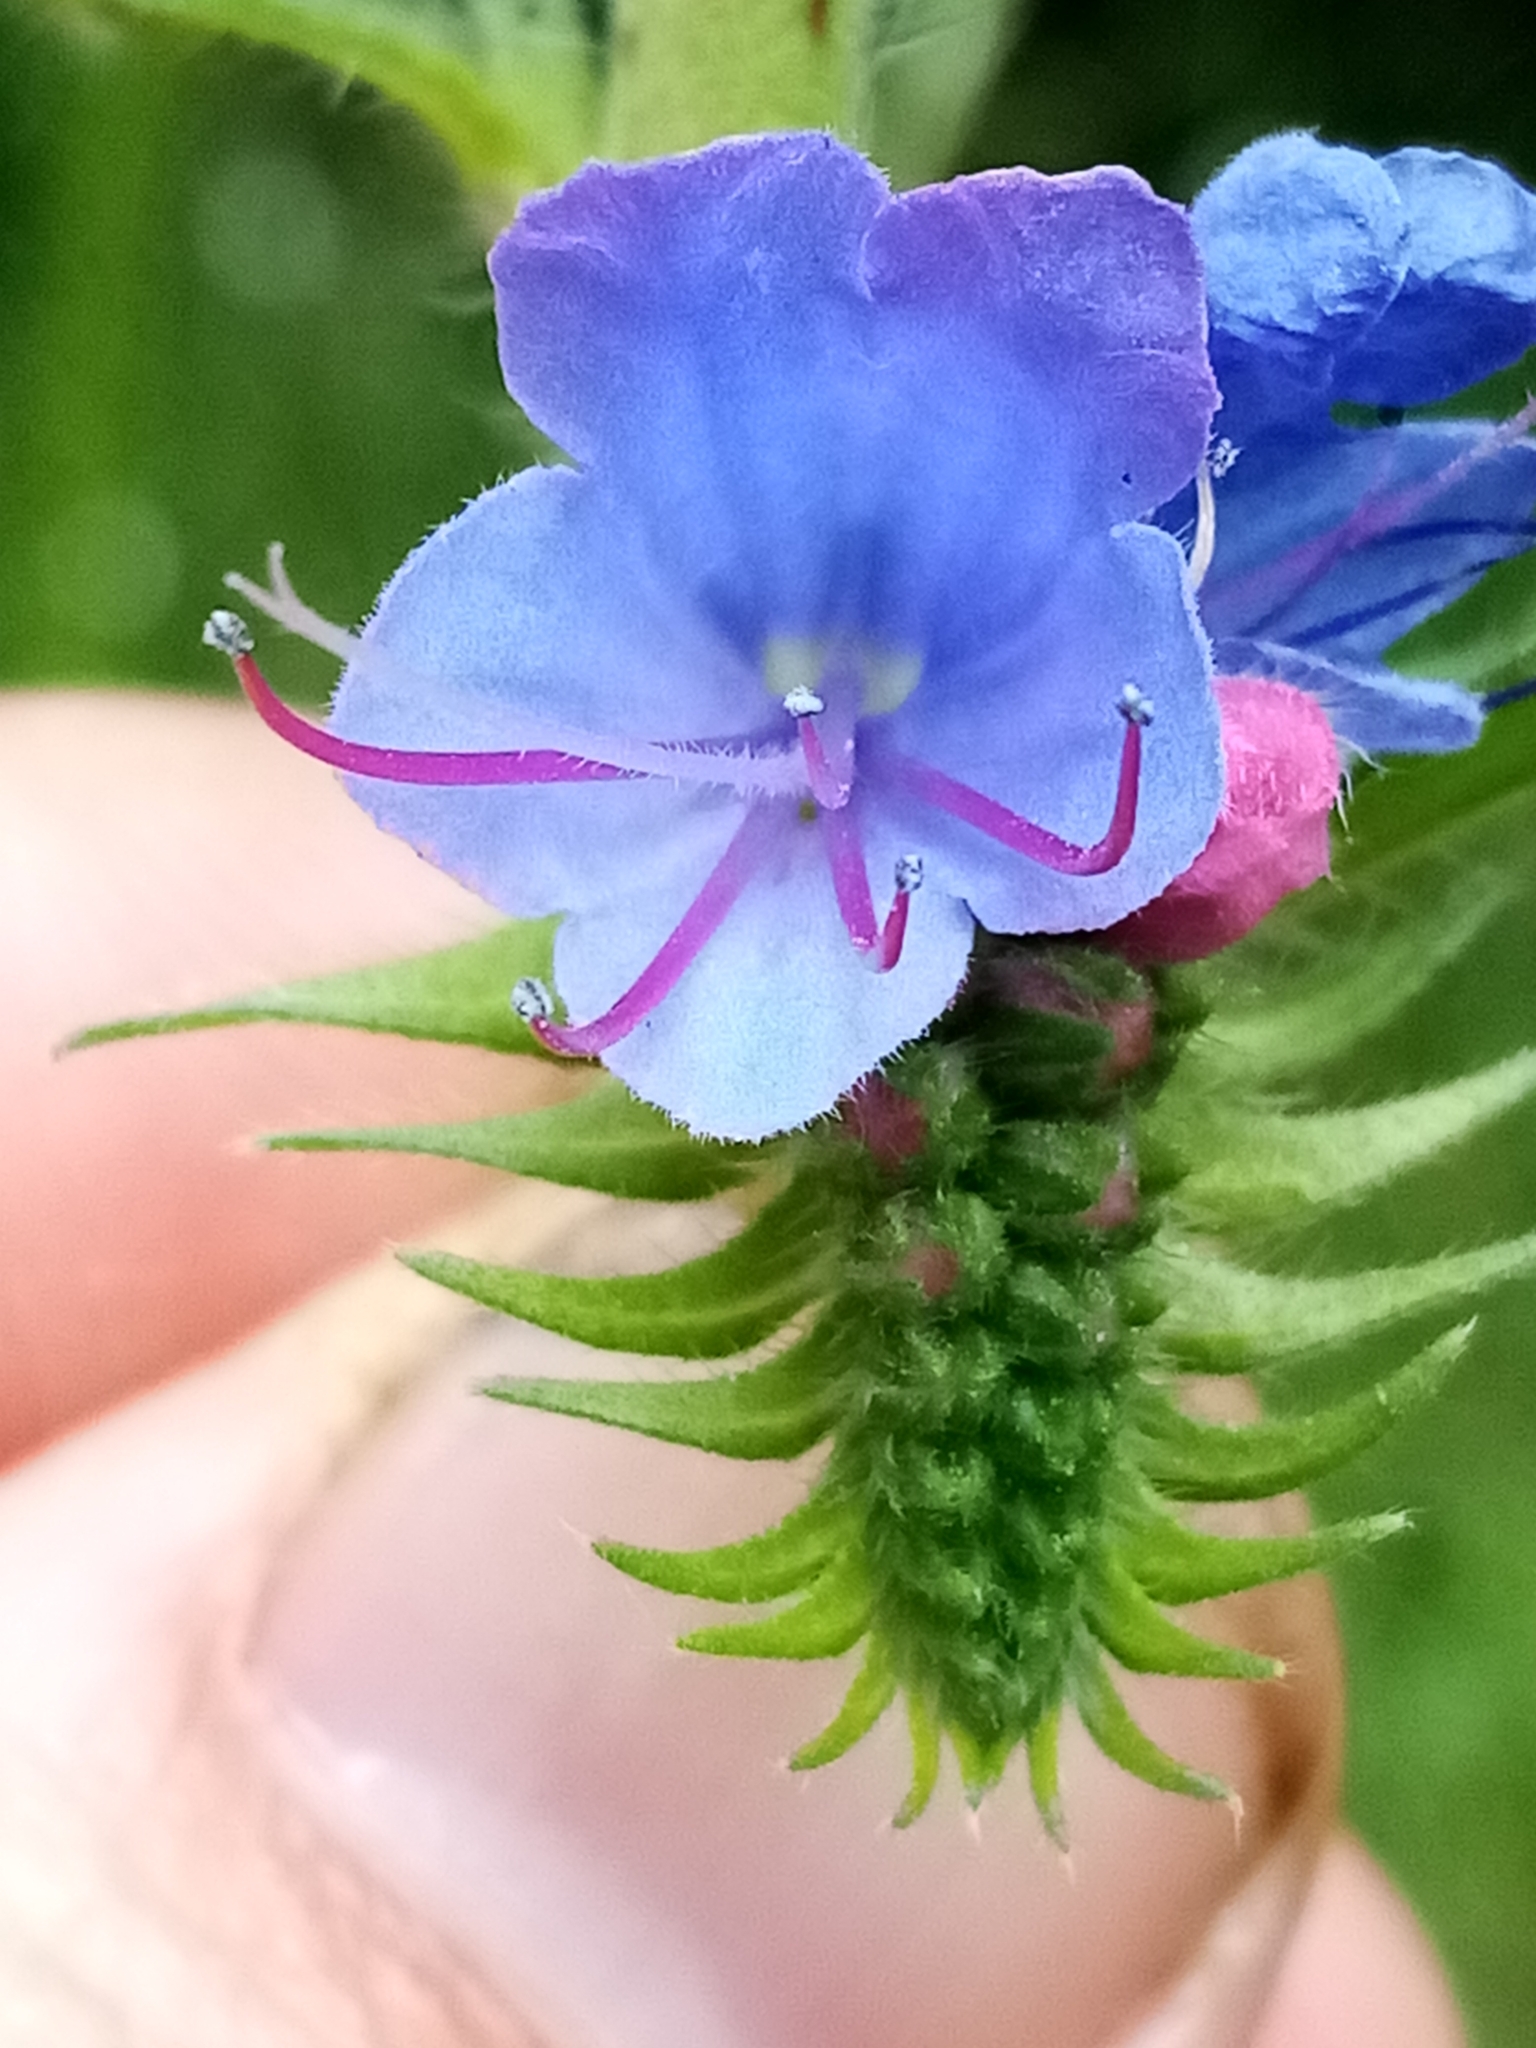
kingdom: Plantae
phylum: Tracheophyta
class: Magnoliopsida
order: Boraginales
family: Boraginaceae
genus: Echium
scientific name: Echium vulgare
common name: Common viper's bugloss
